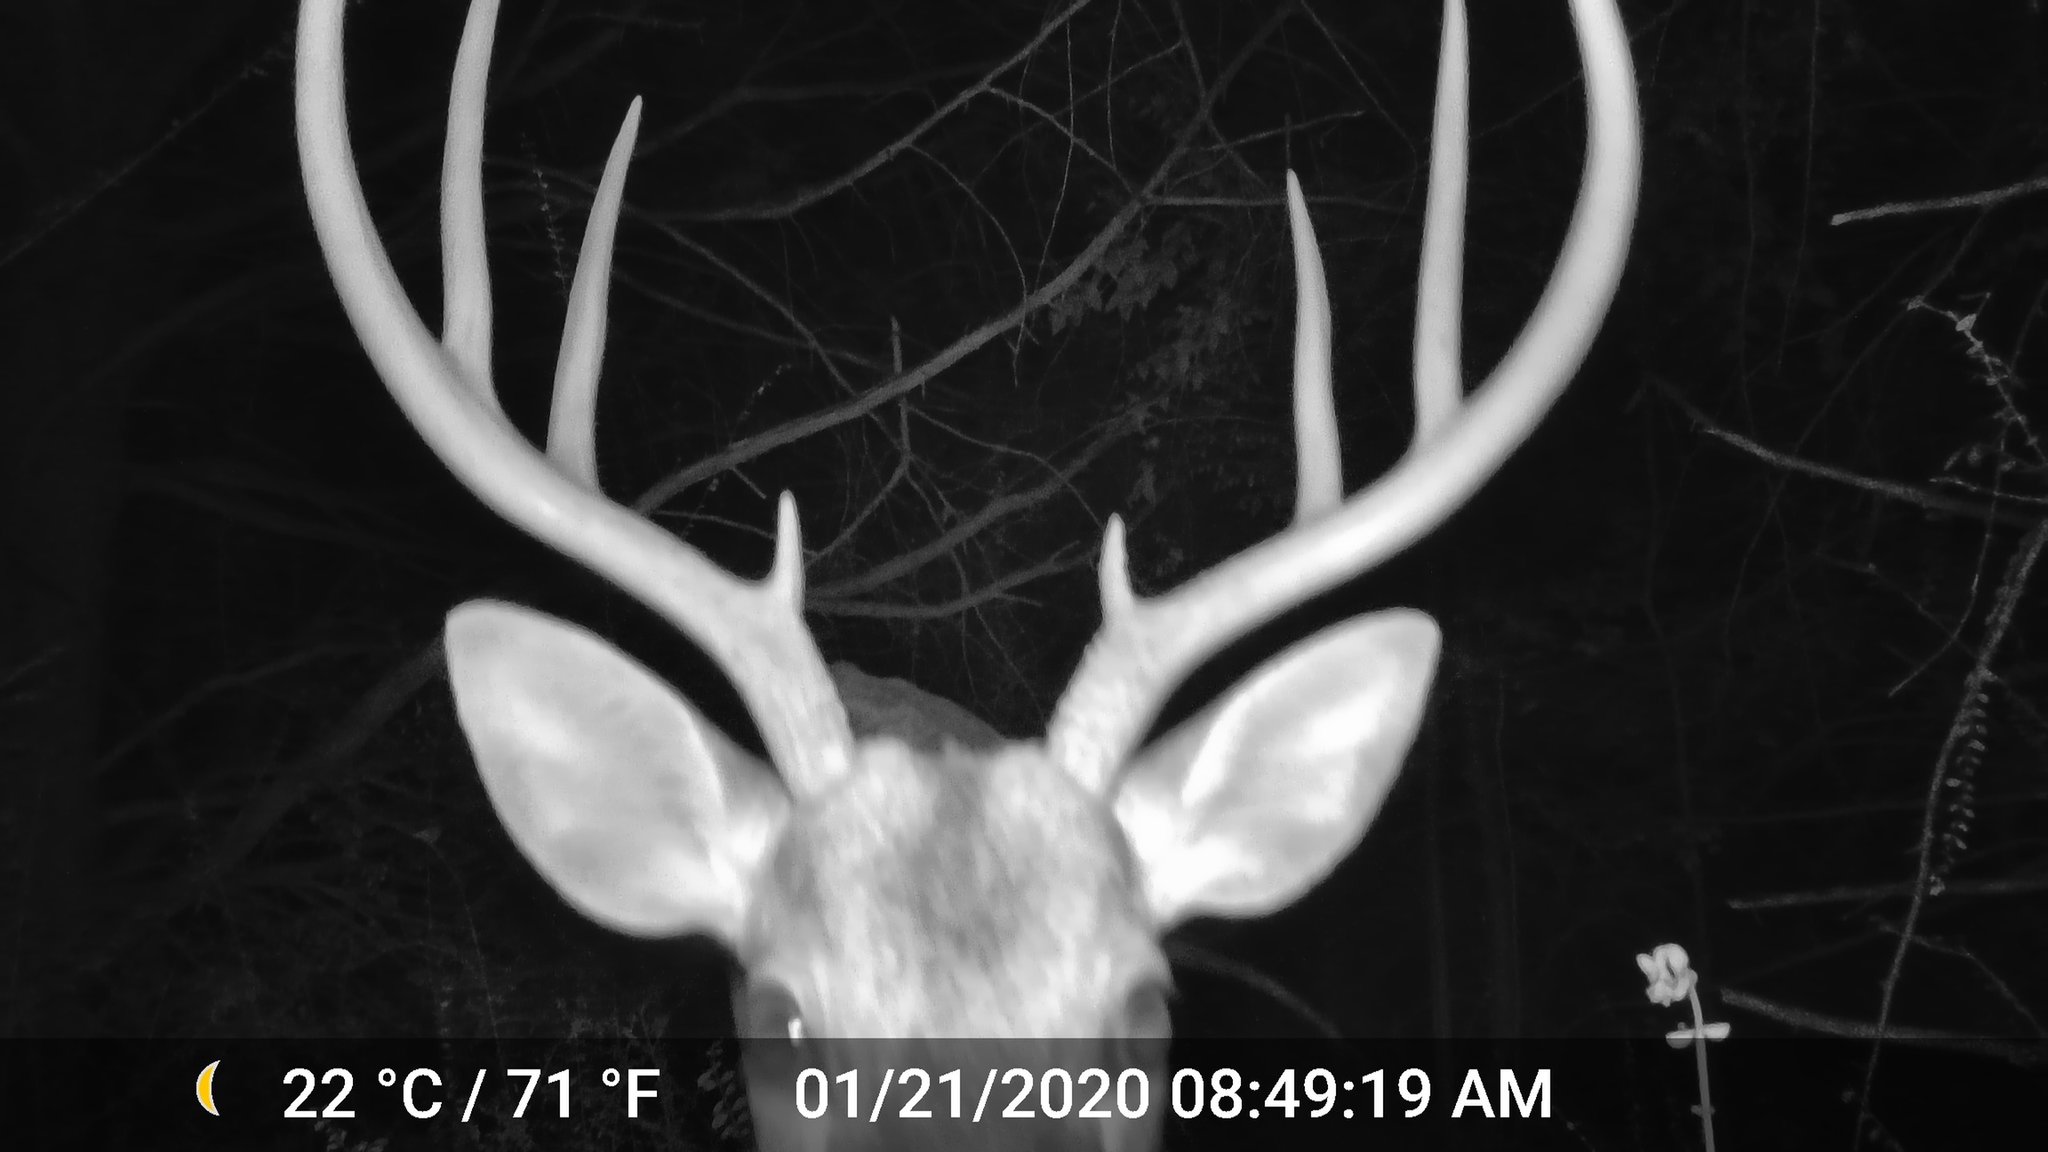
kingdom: Animalia
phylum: Chordata
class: Mammalia
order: Artiodactyla
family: Cervidae
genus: Odocoileus
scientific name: Odocoileus virginianus
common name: White-tailed deer
